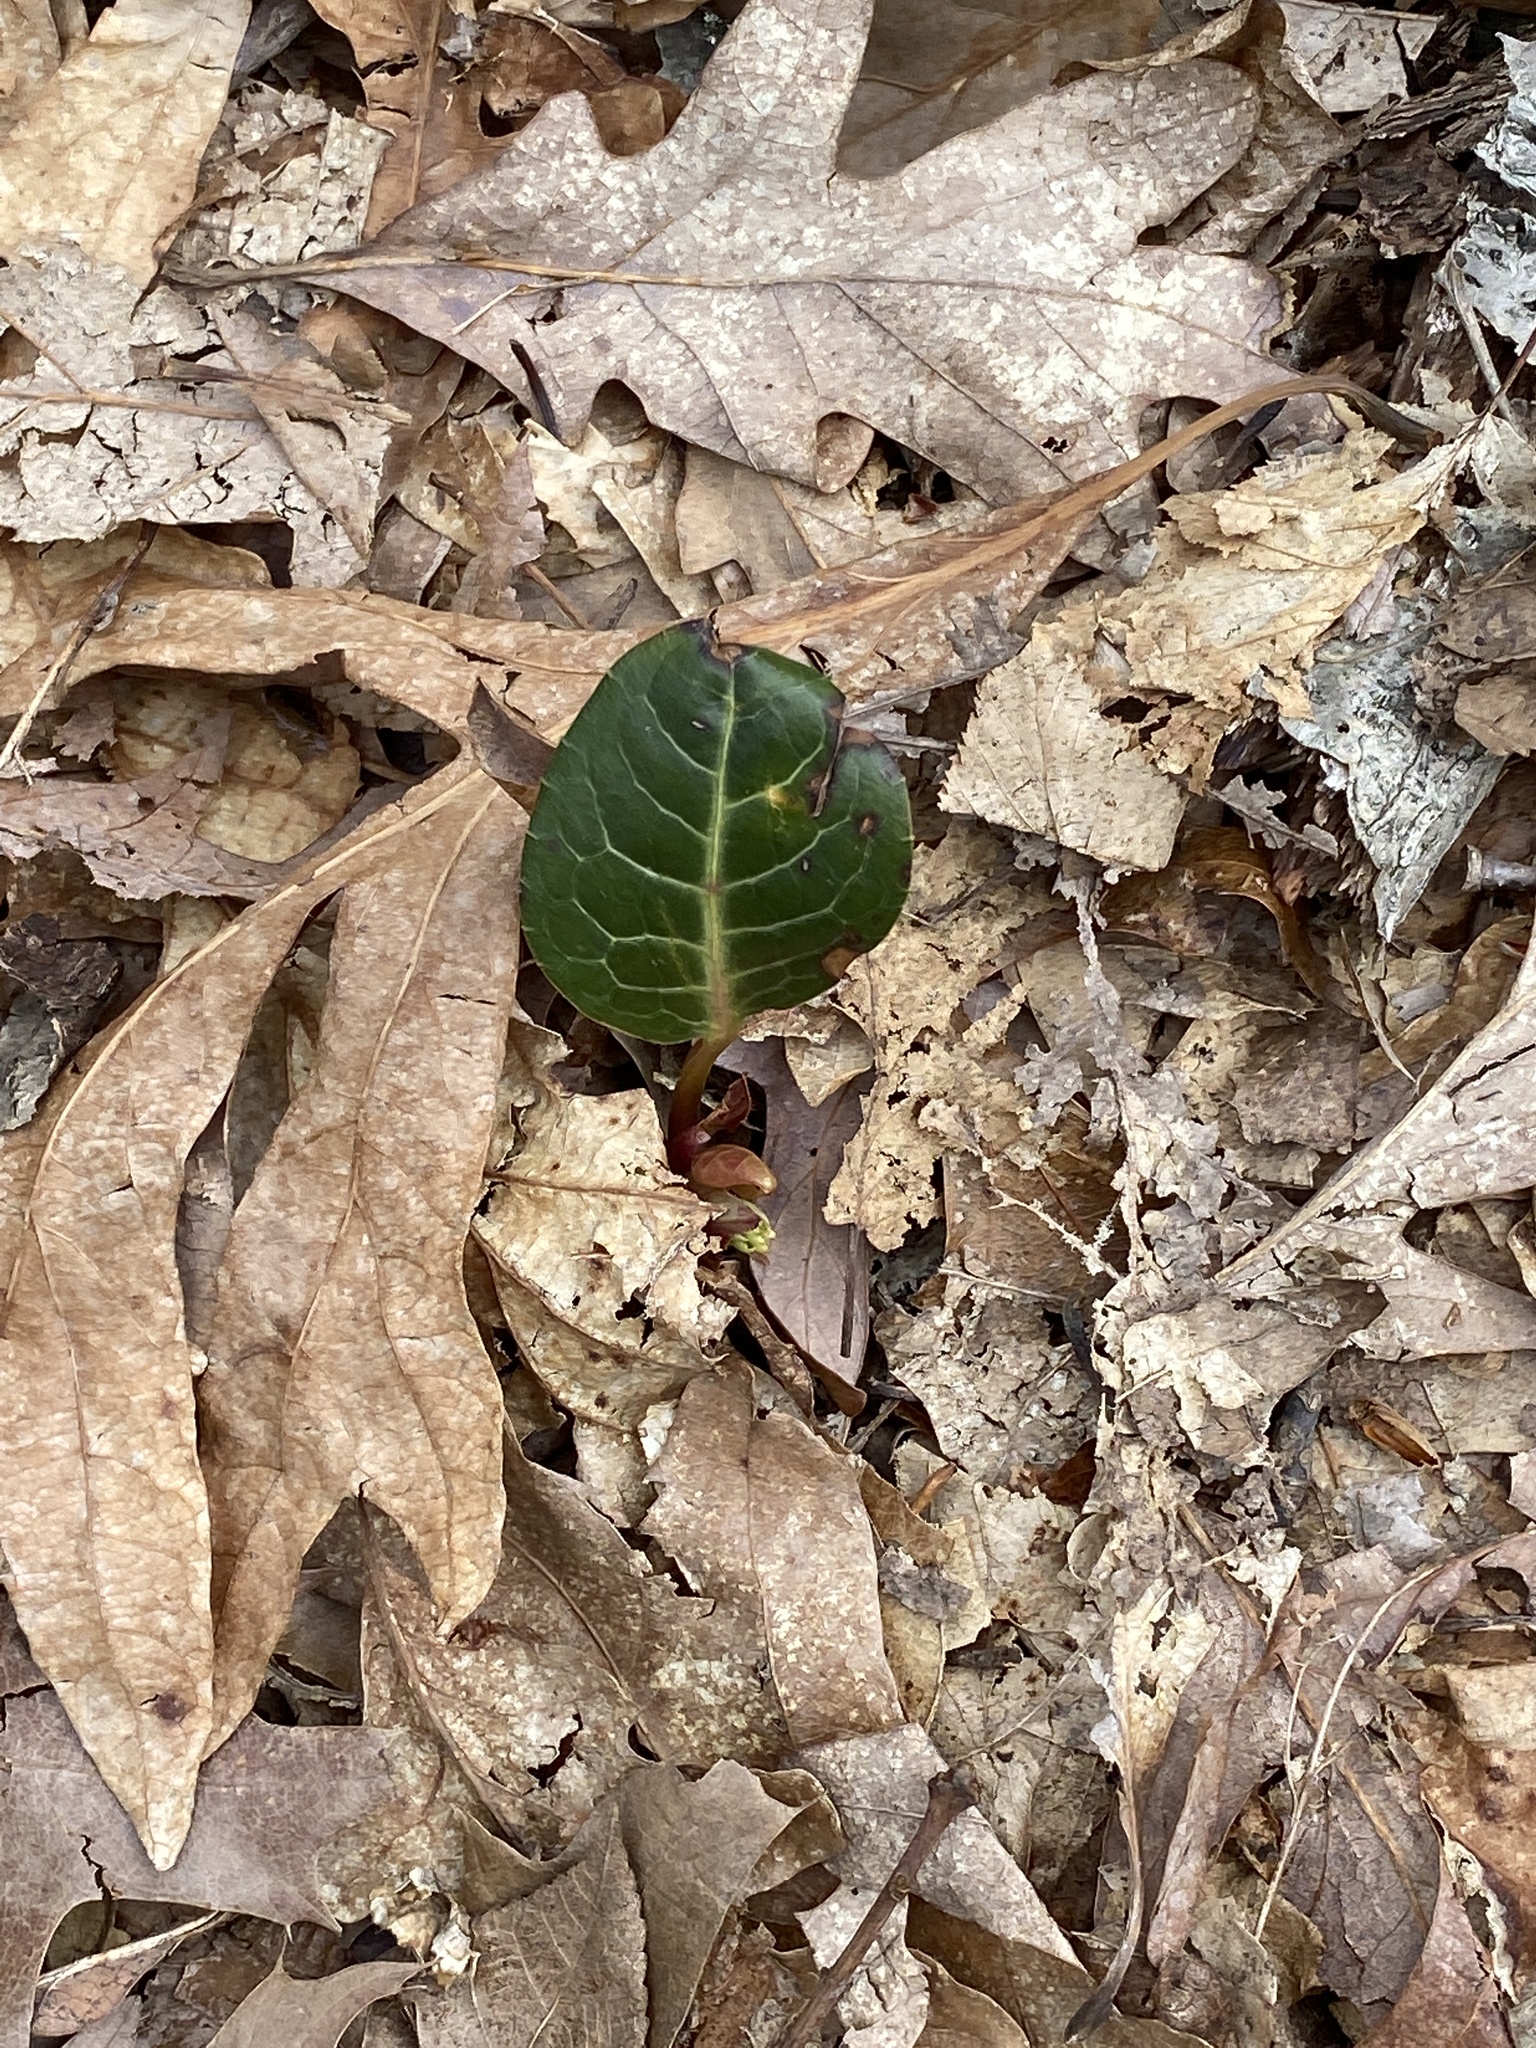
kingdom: Plantae
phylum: Tracheophyta
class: Magnoliopsida
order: Ericales
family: Ericaceae
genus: Pyrola
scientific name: Pyrola americana
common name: American wintergreen
